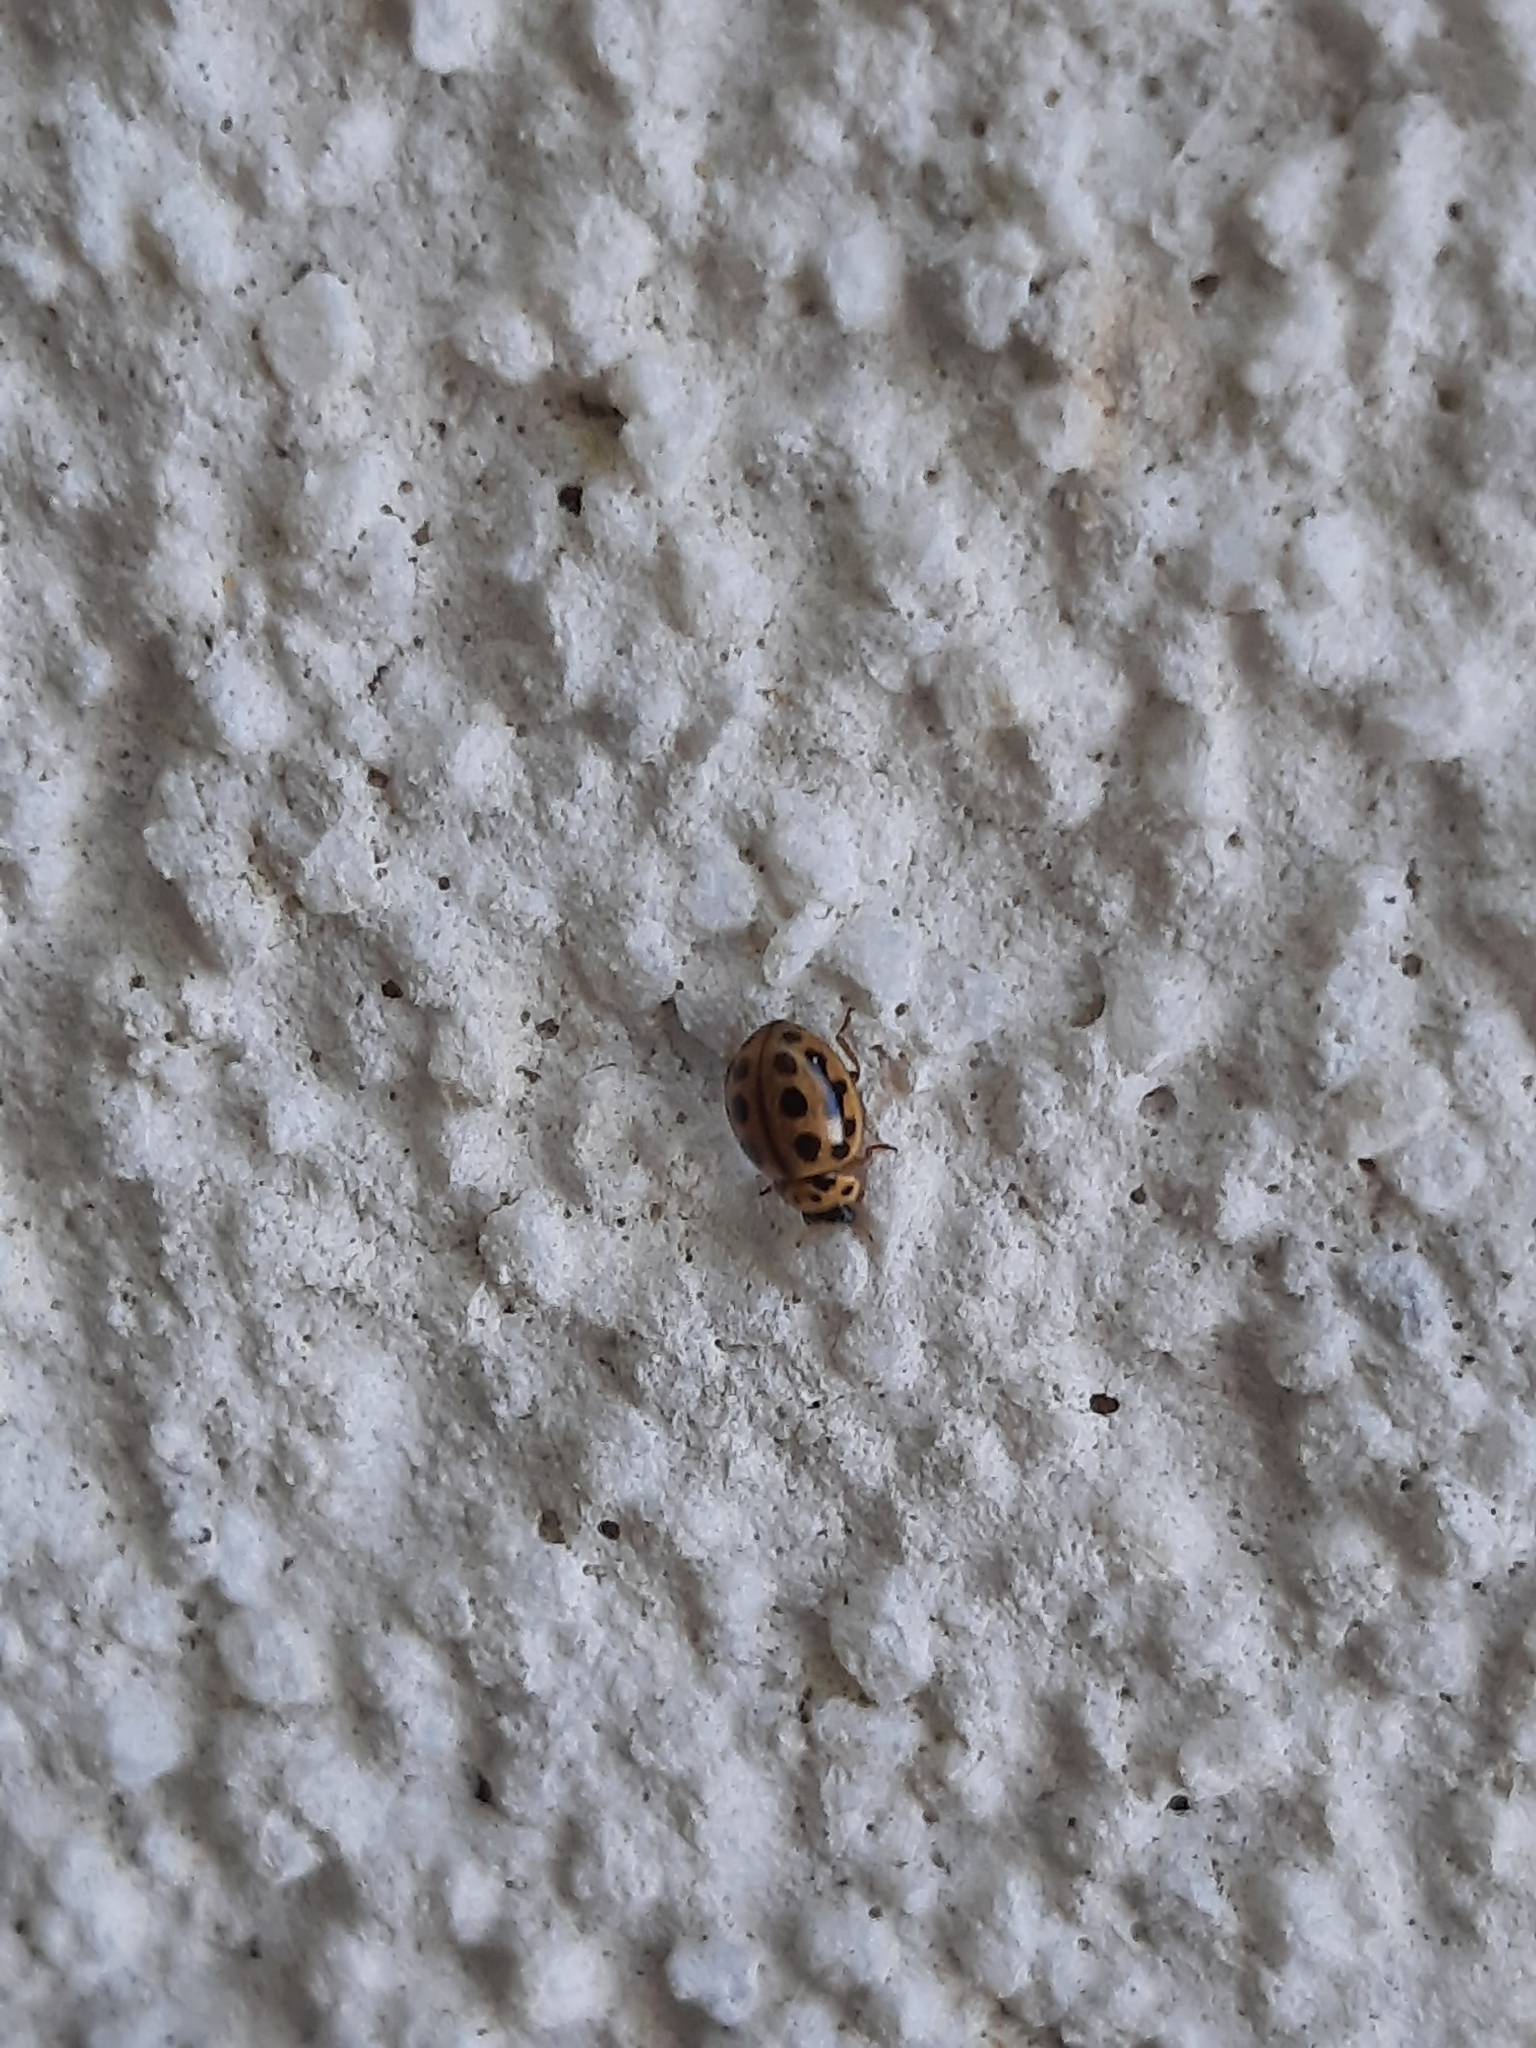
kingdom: Animalia
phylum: Arthropoda
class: Insecta
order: Coleoptera
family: Coccinellidae
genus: Tytthaspis
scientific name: Tytthaspis sedecimpunctata
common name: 16-spot ladybird
